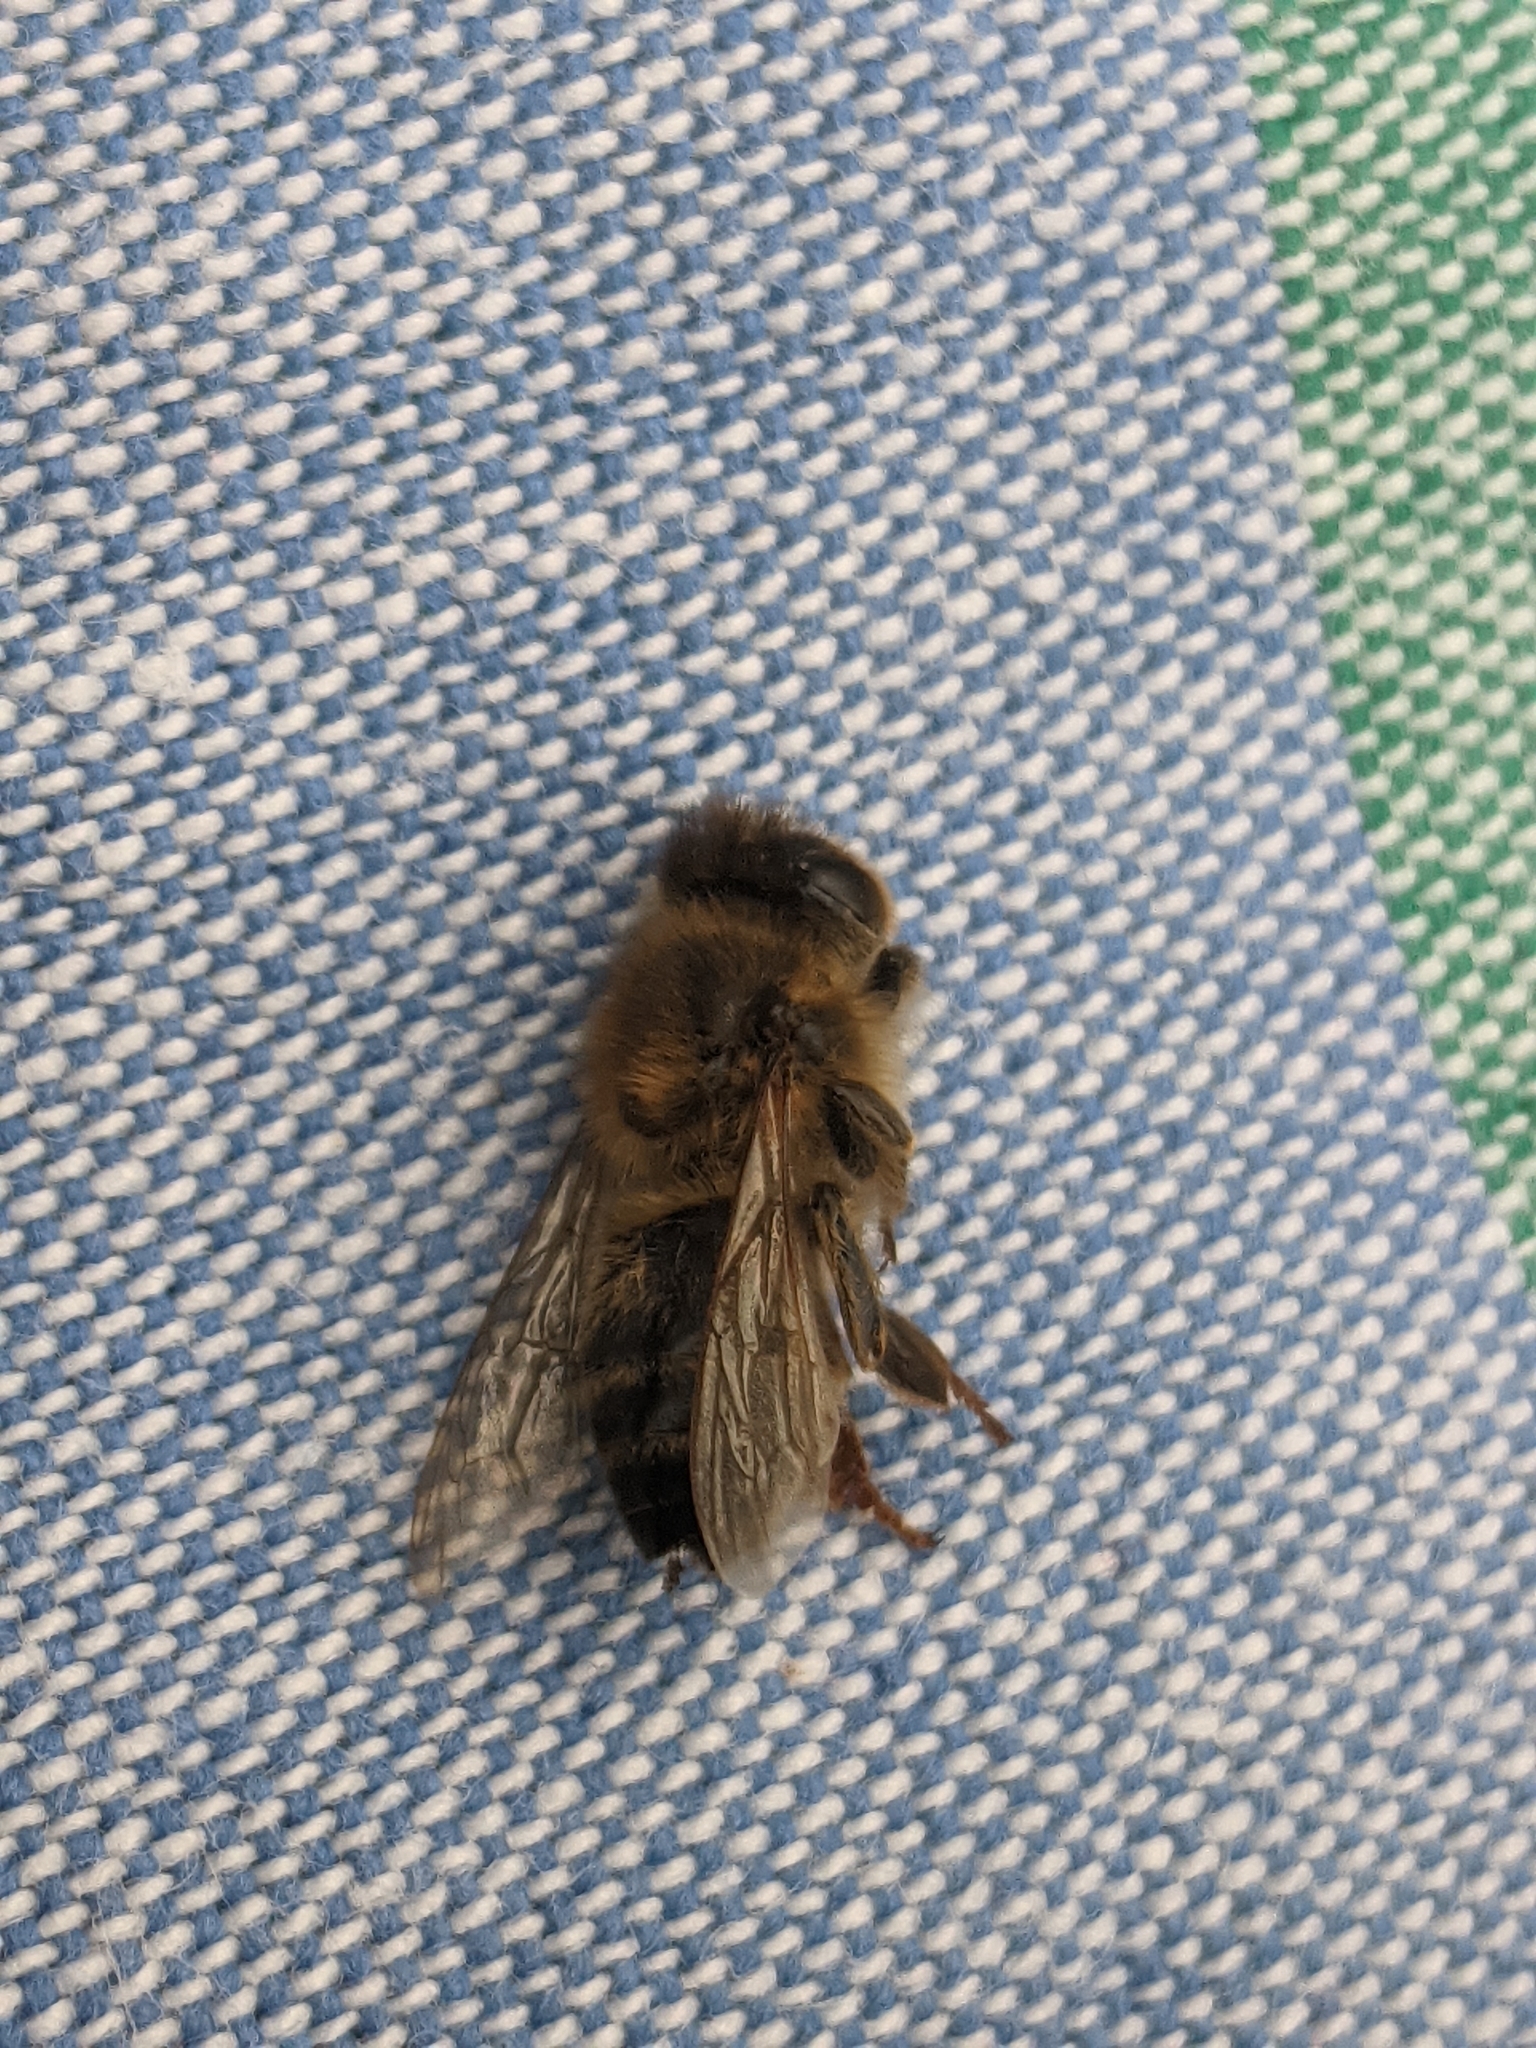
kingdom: Animalia
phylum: Arthropoda
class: Insecta
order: Hymenoptera
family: Apidae
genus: Apis
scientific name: Apis mellifera
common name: Honey bee
